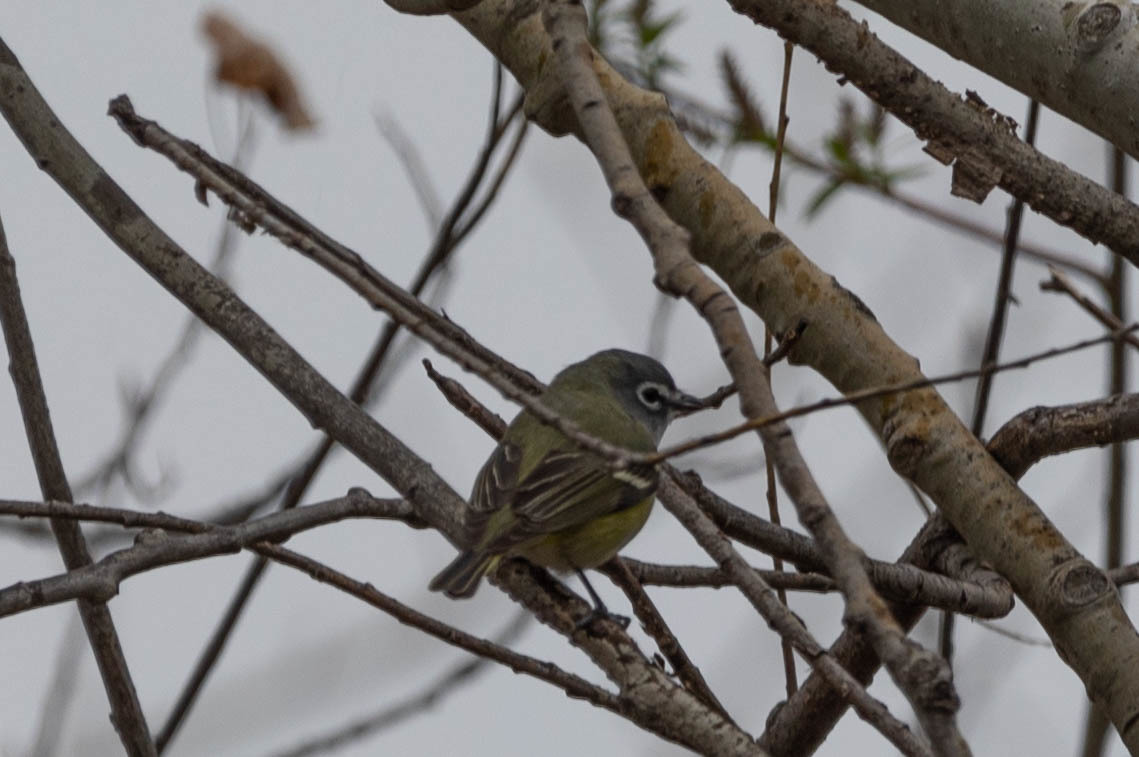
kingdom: Animalia
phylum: Chordata
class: Aves
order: Passeriformes
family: Vireonidae
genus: Vireo
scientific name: Vireo solitarius
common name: Blue-headed vireo
